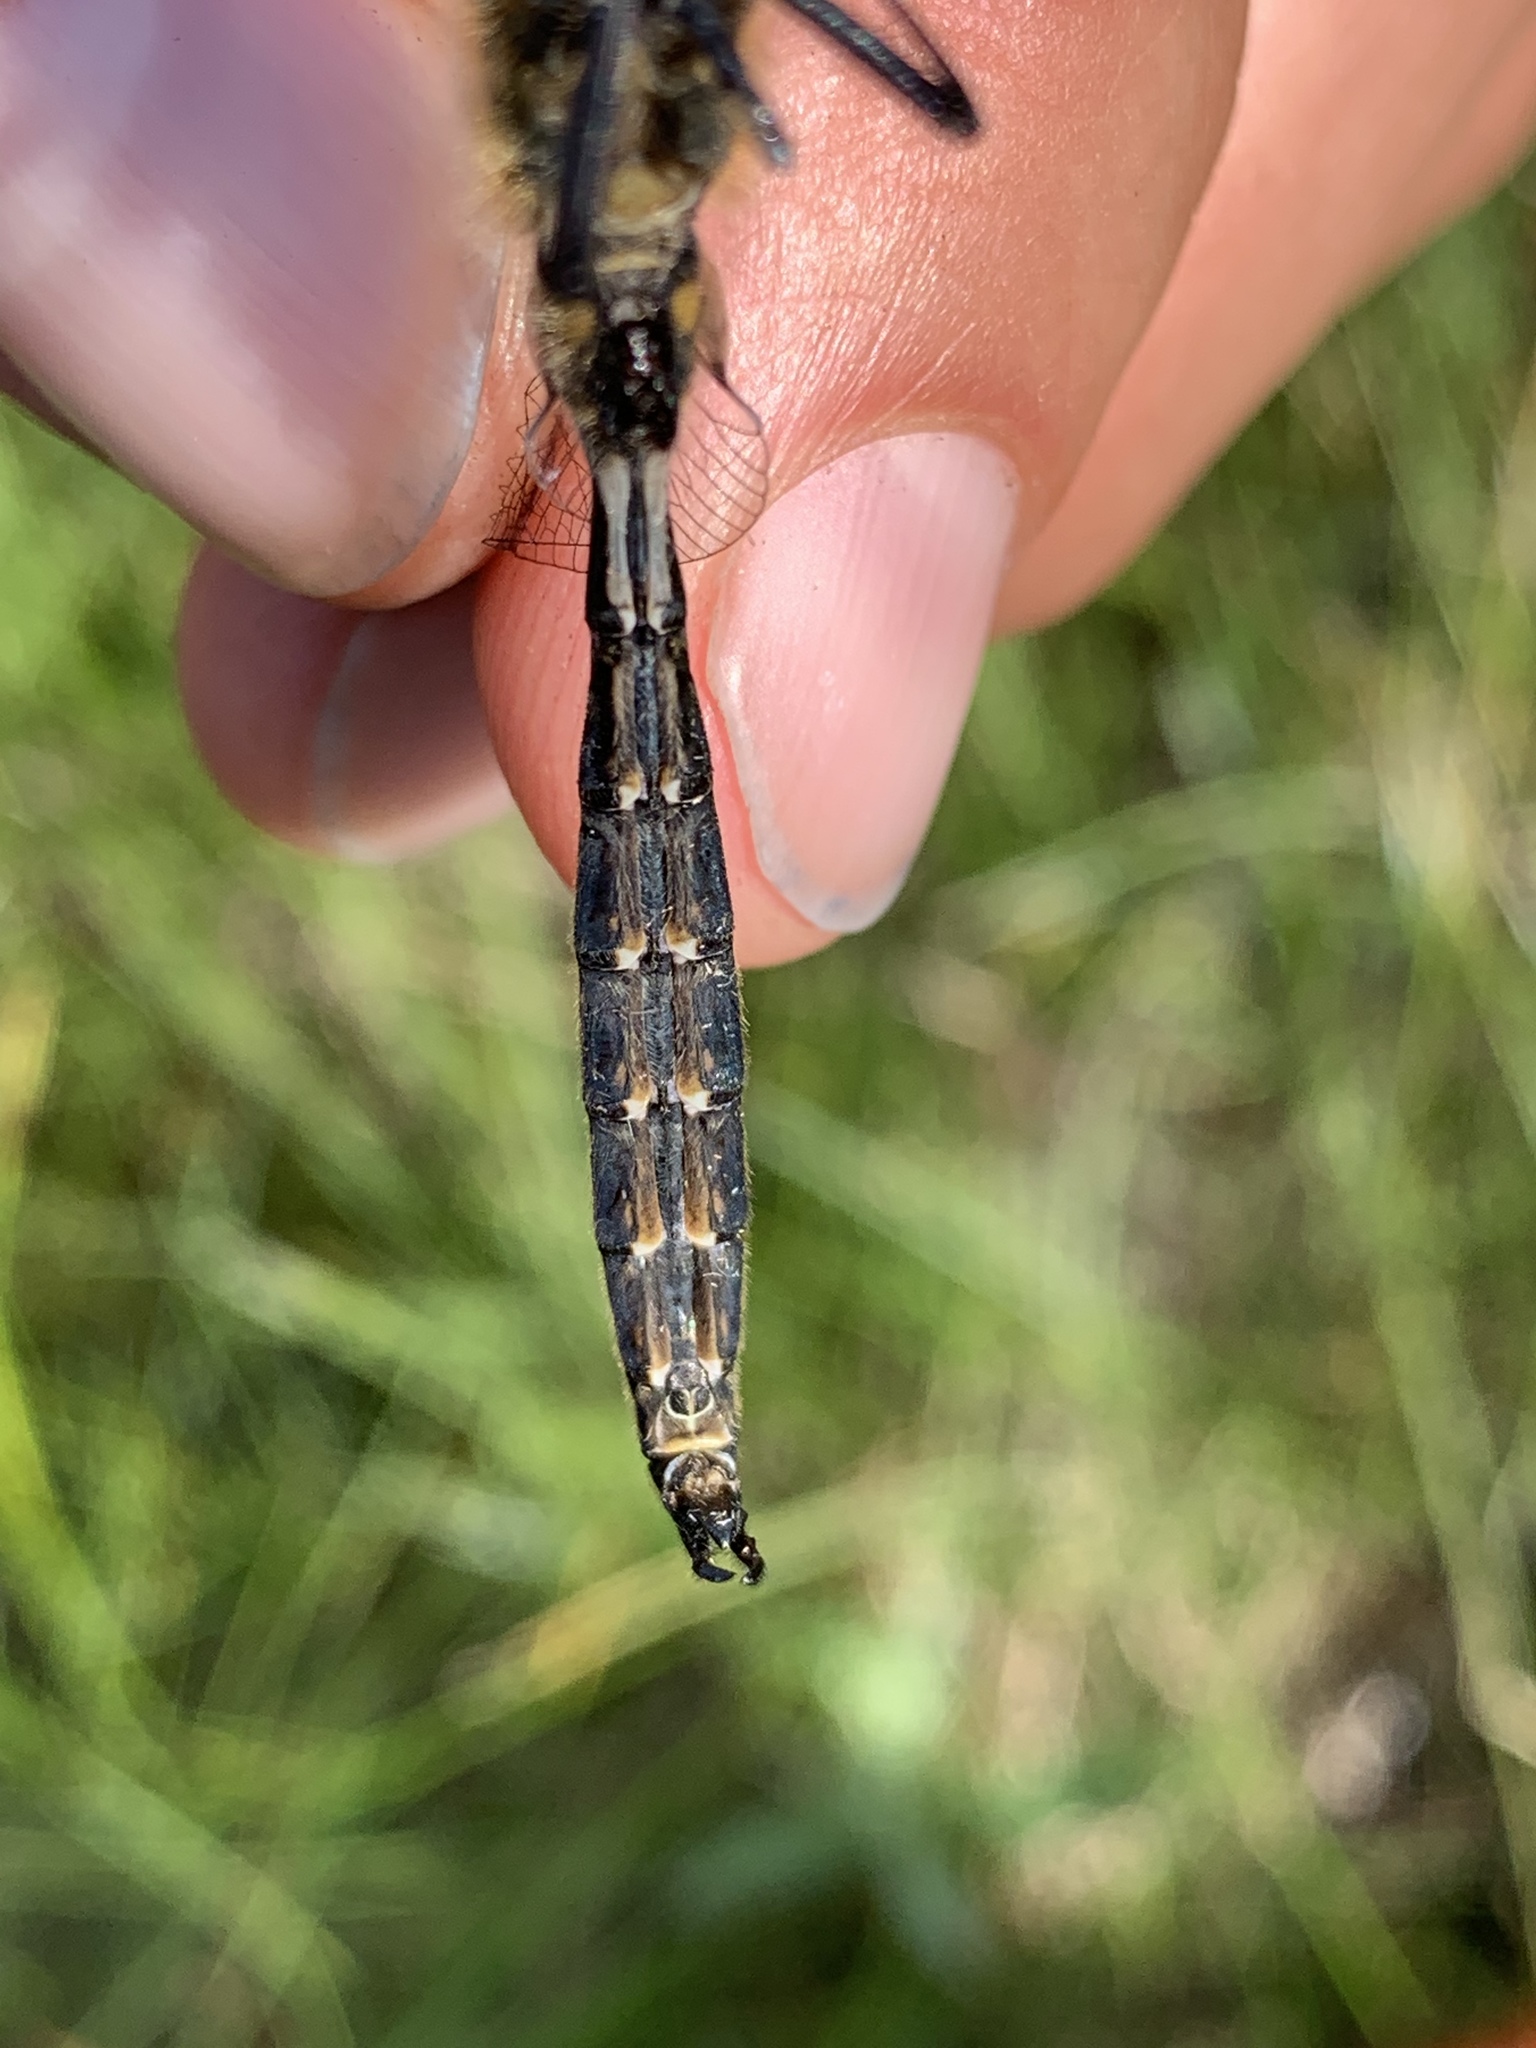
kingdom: Animalia
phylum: Arthropoda
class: Insecta
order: Odonata
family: Corduliidae
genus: Somatochlora
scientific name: Somatochlora semicircularis
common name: Mountain emerald
